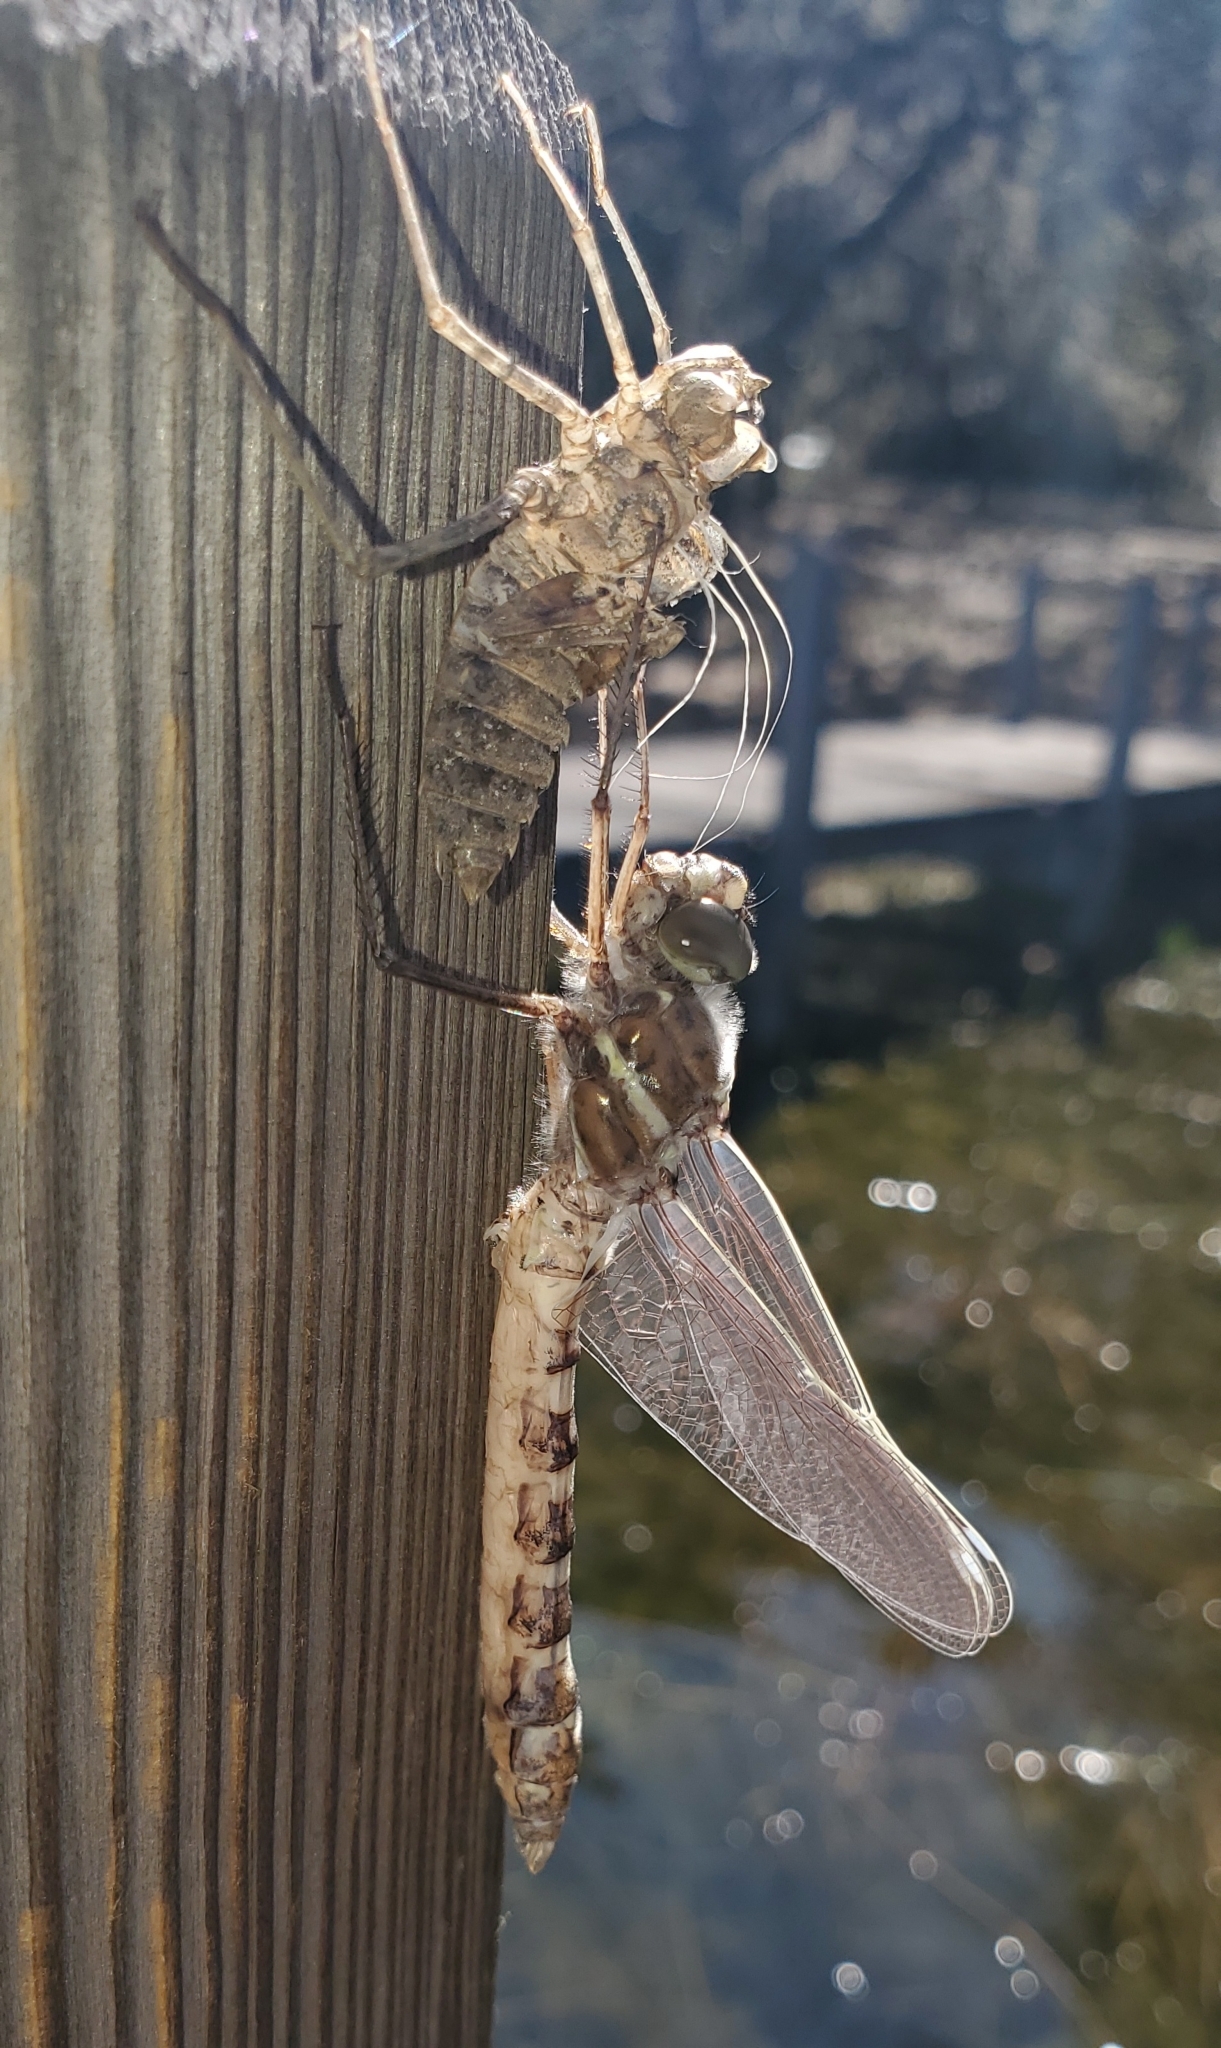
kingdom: Animalia
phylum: Arthropoda
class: Insecta
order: Odonata
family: Macromiidae
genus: Didymops
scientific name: Didymops floridensis
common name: Florida cruiser
